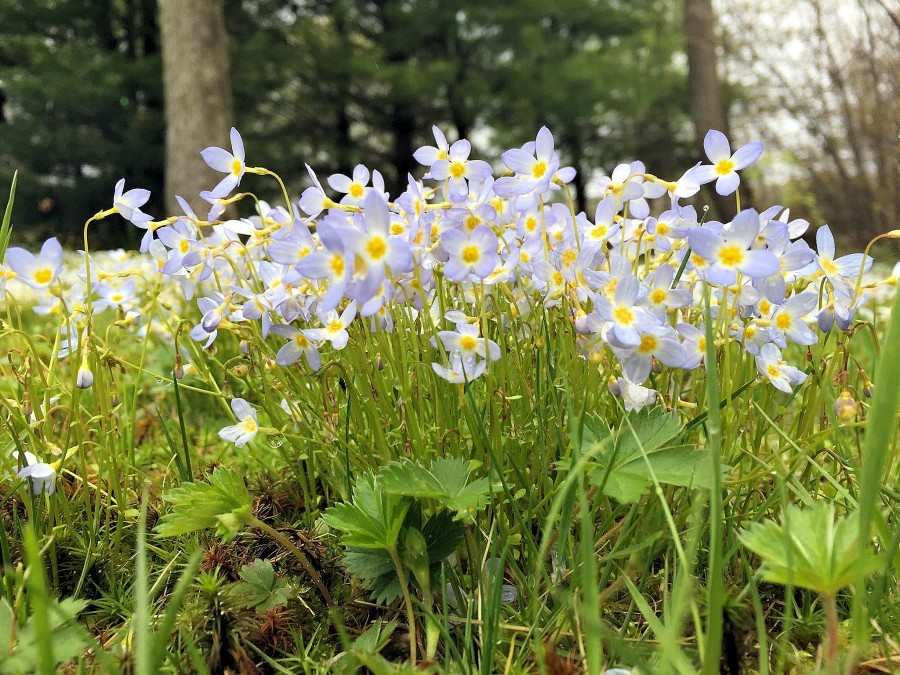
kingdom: Plantae
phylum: Tracheophyta
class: Magnoliopsida
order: Gentianales
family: Rubiaceae
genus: Houstonia
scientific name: Houstonia caerulea
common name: Bluets
